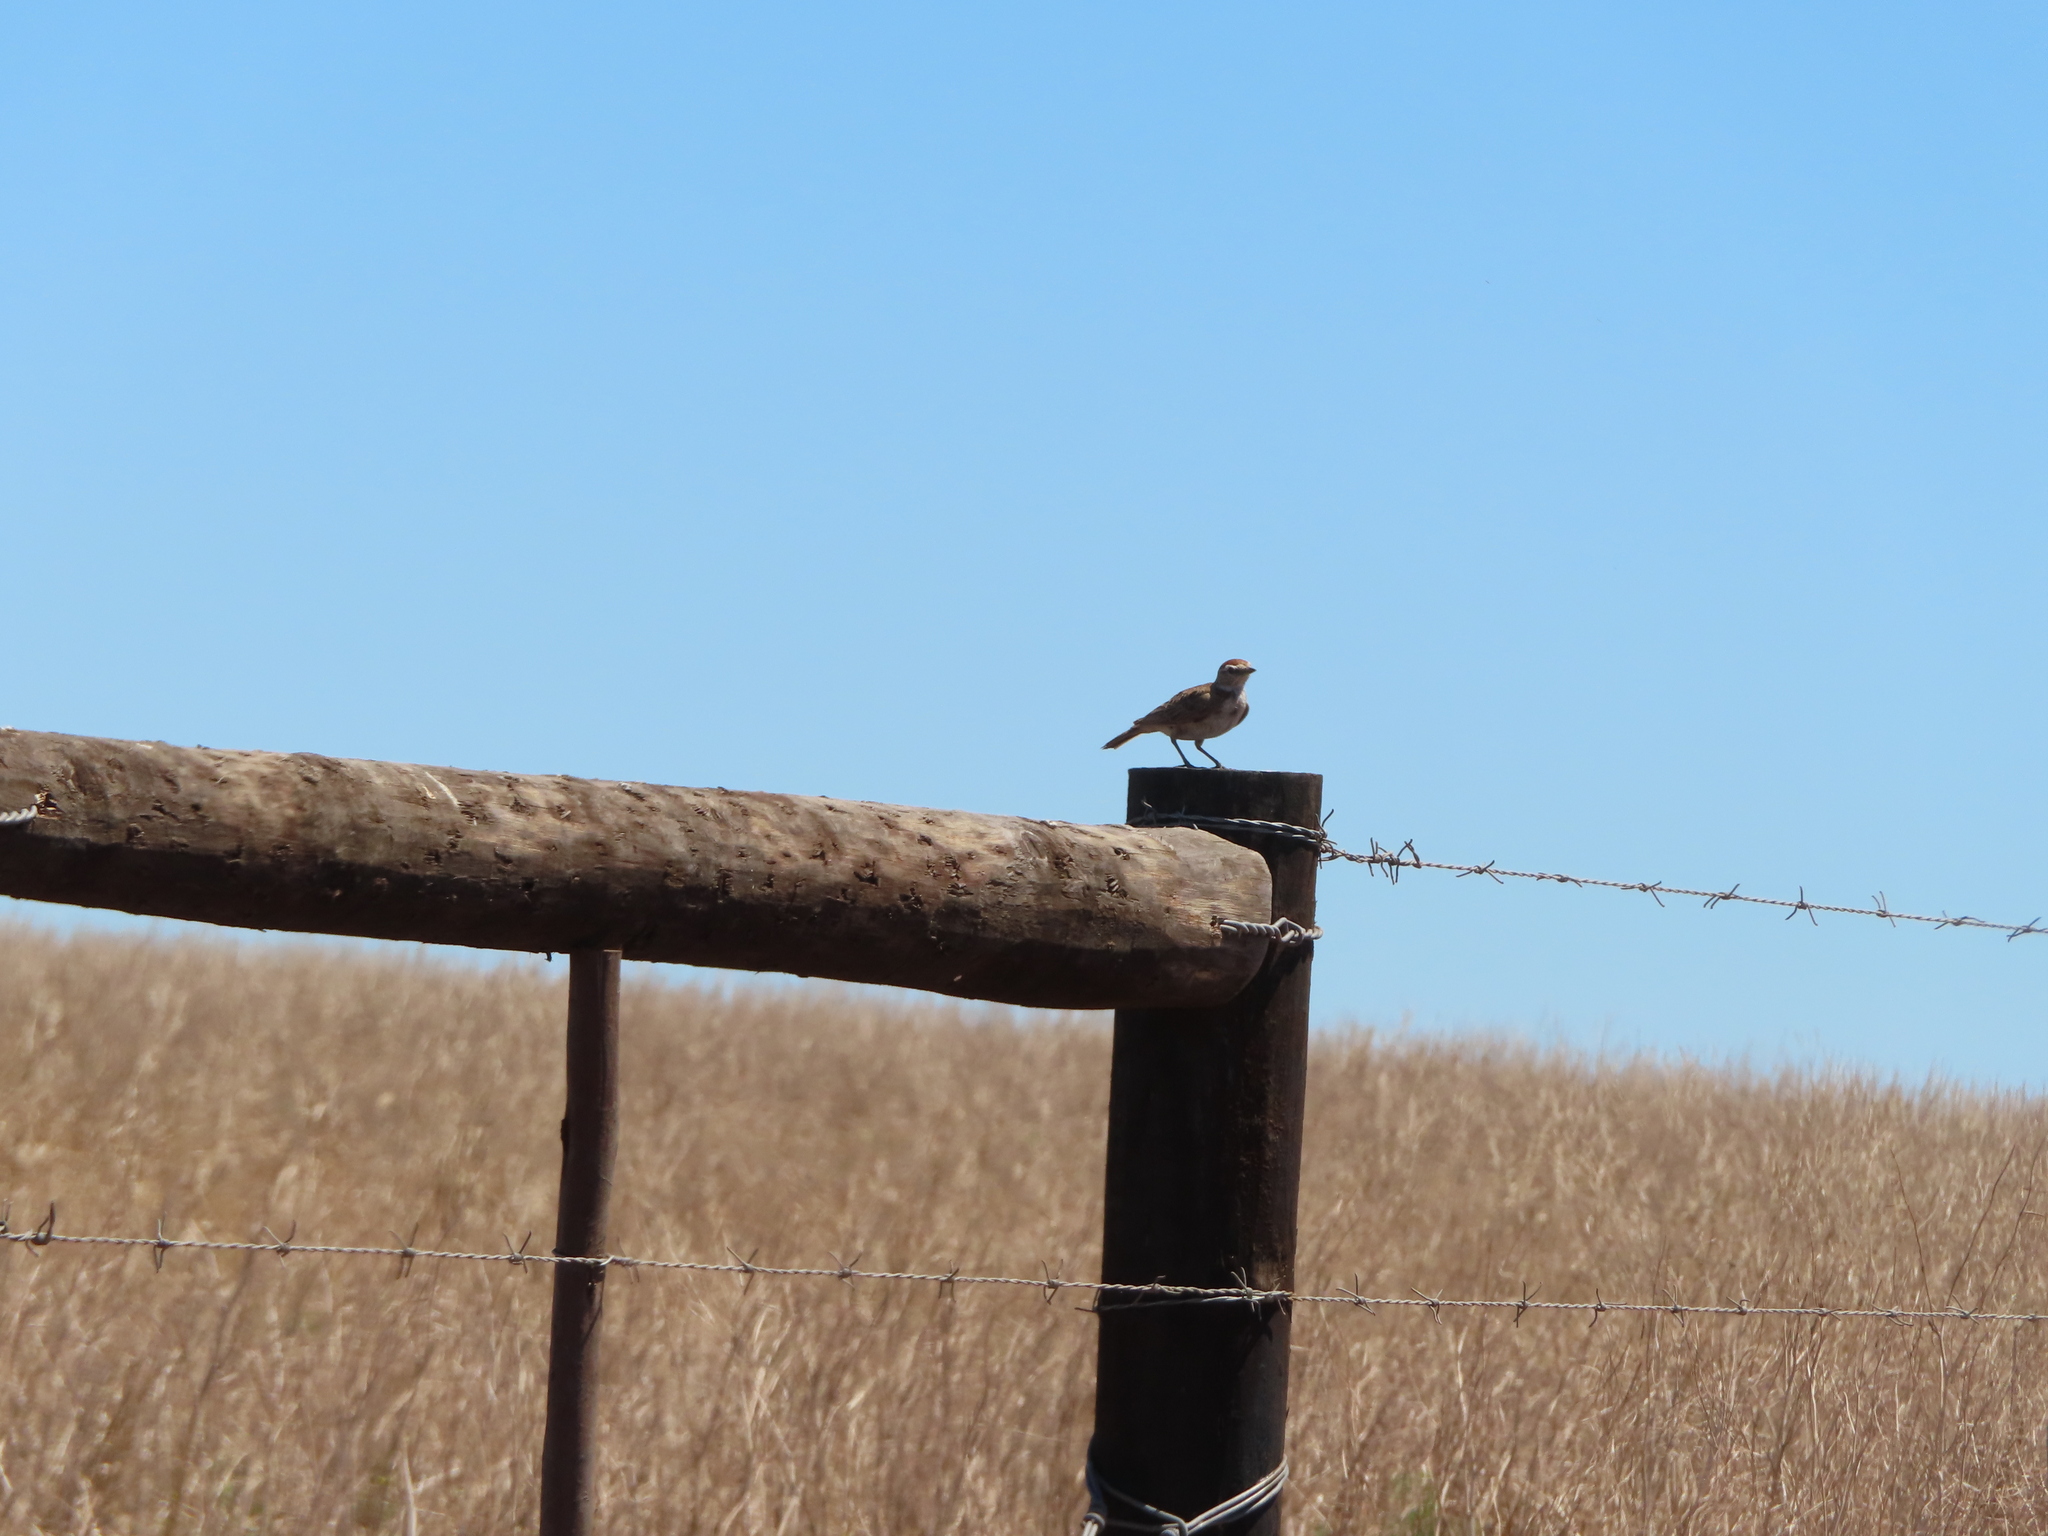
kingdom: Animalia
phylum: Chordata
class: Aves
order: Passeriformes
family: Alaudidae
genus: Calandrella
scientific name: Calandrella cinerea
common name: Red-capped lark
